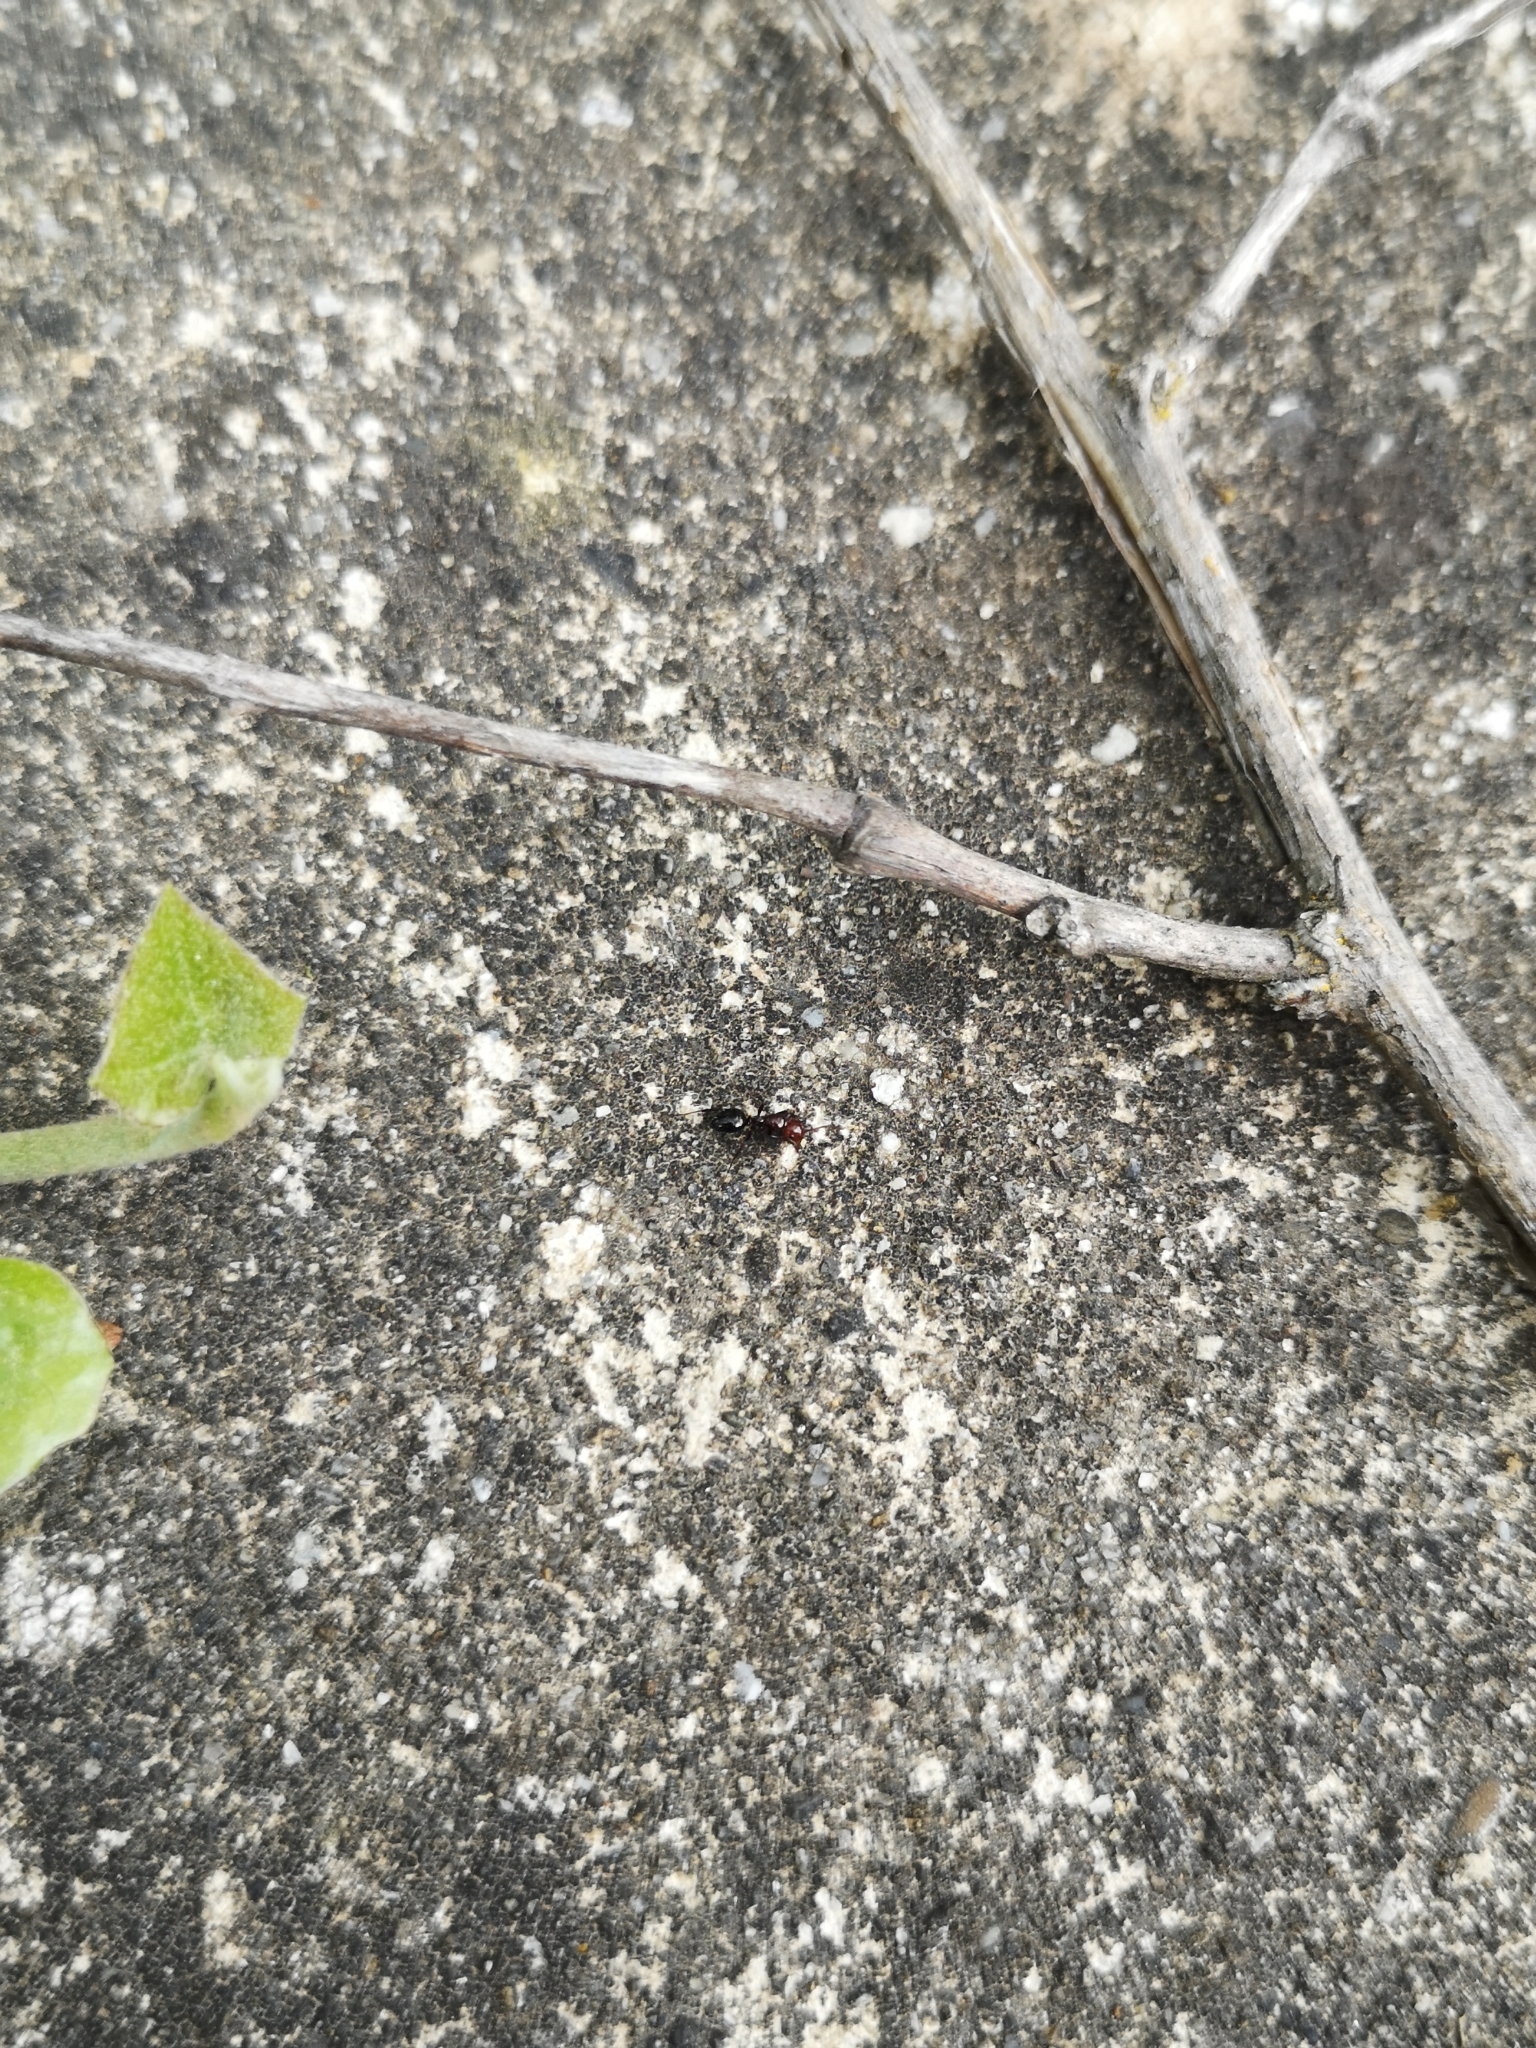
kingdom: Animalia
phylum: Arthropoda
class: Insecta
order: Hymenoptera
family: Formicidae
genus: Camponotus
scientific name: Camponotus lateralis
